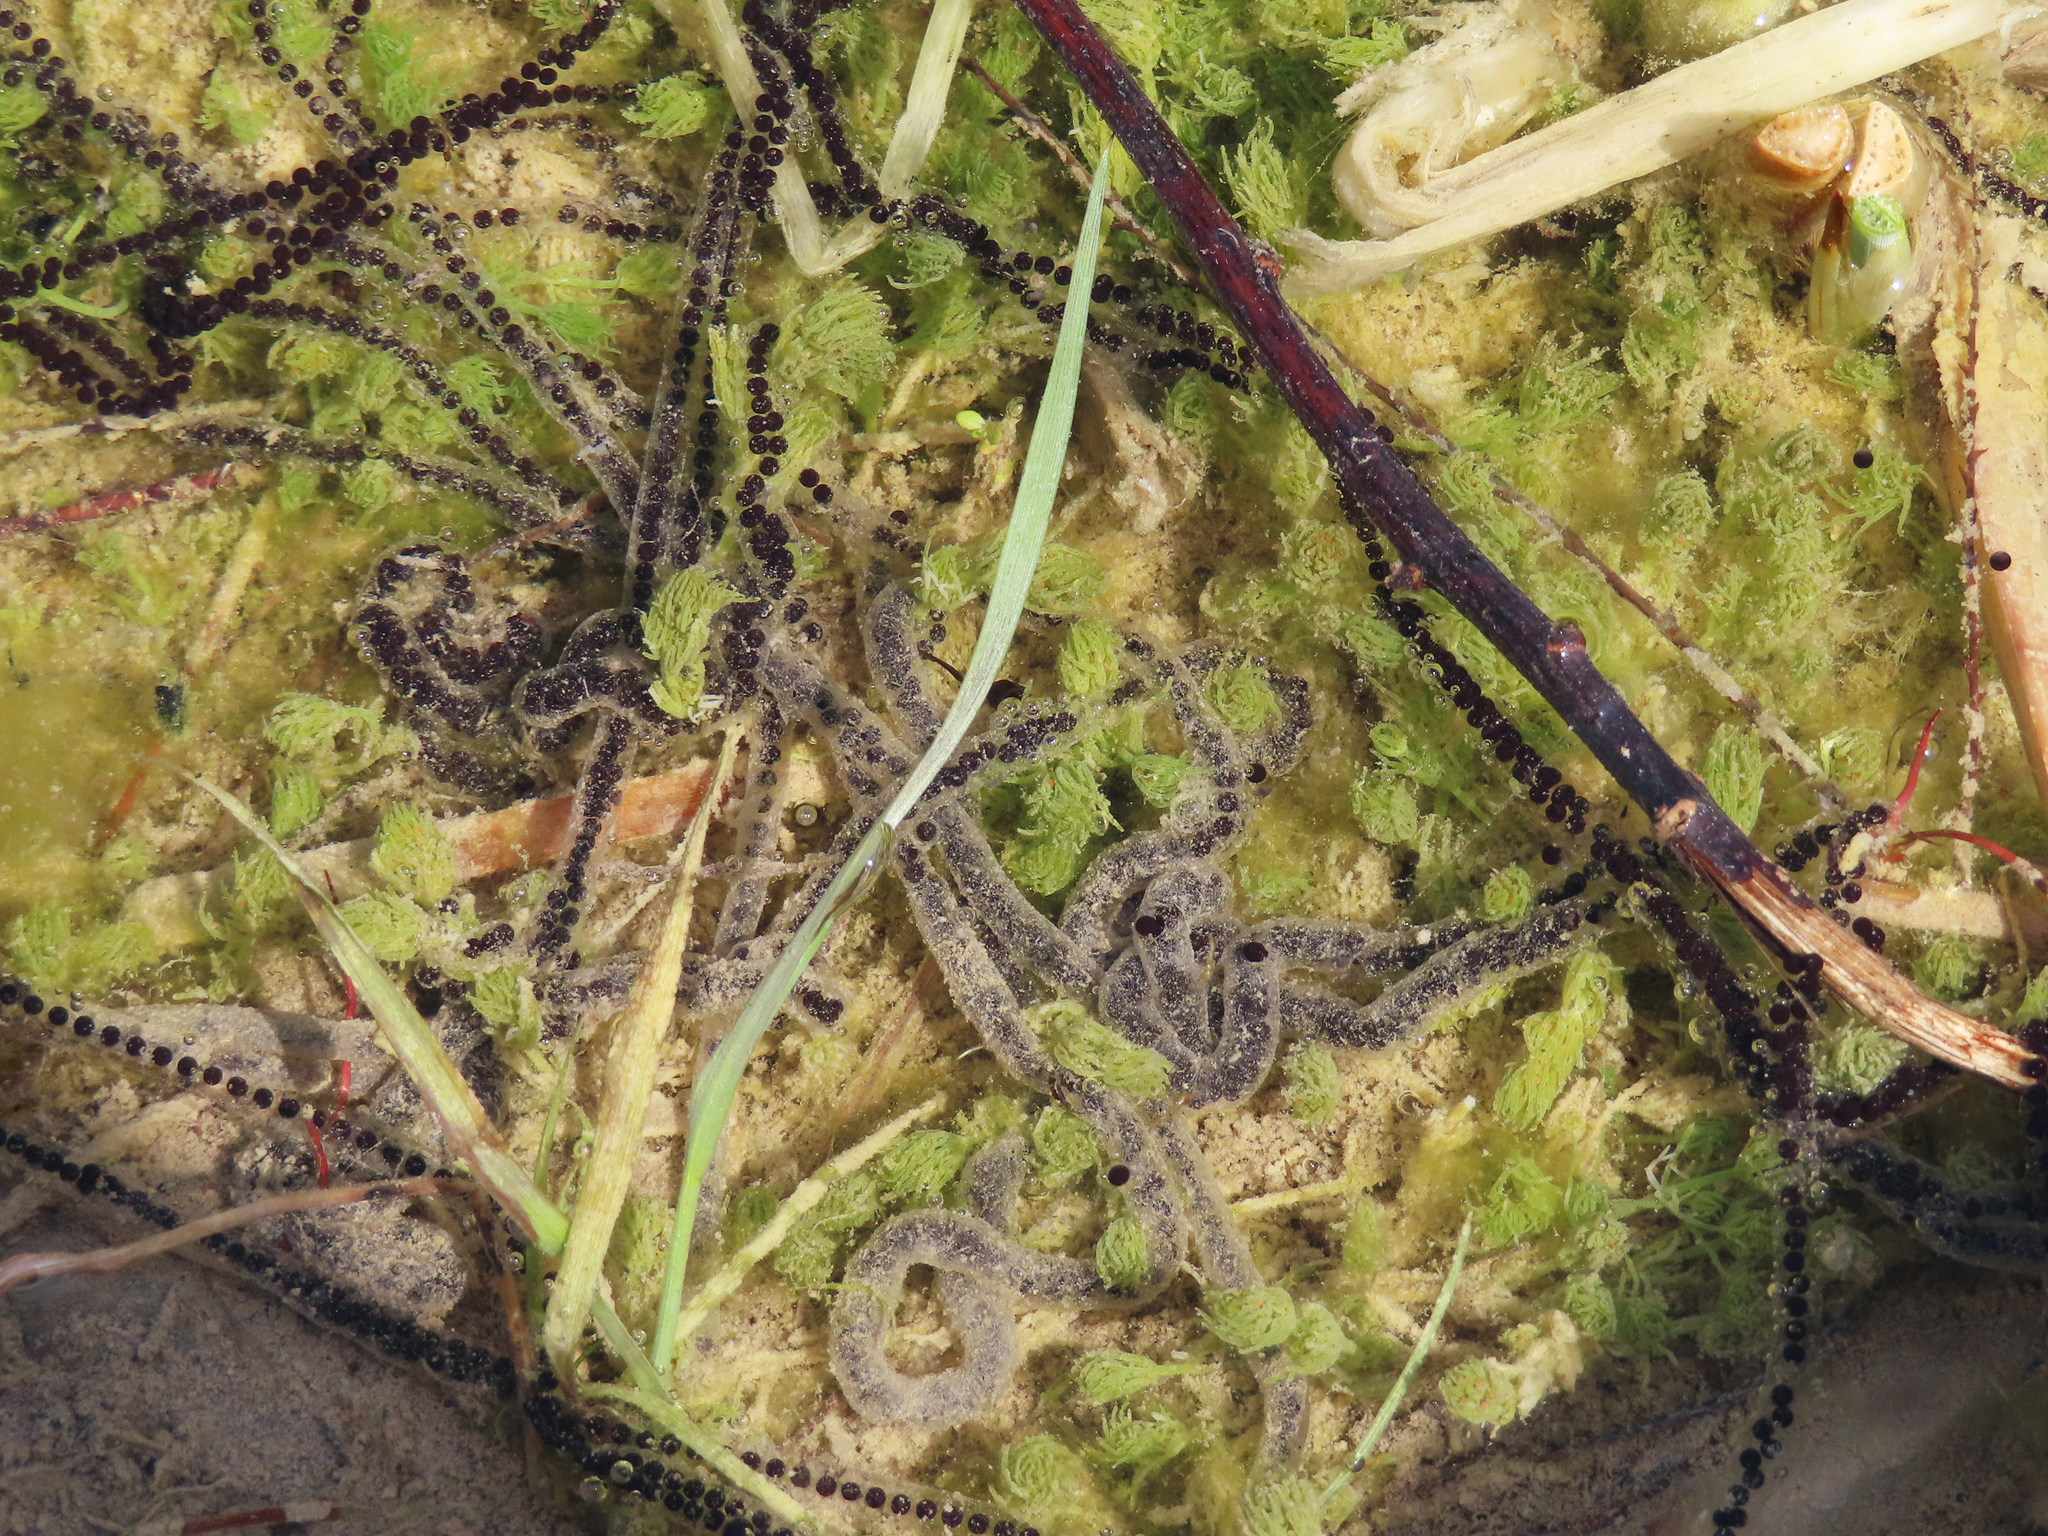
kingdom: Animalia
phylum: Chordata
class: Amphibia
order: Anura
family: Bufonidae
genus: Bufotes
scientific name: Bufotes viridis
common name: European green toad
